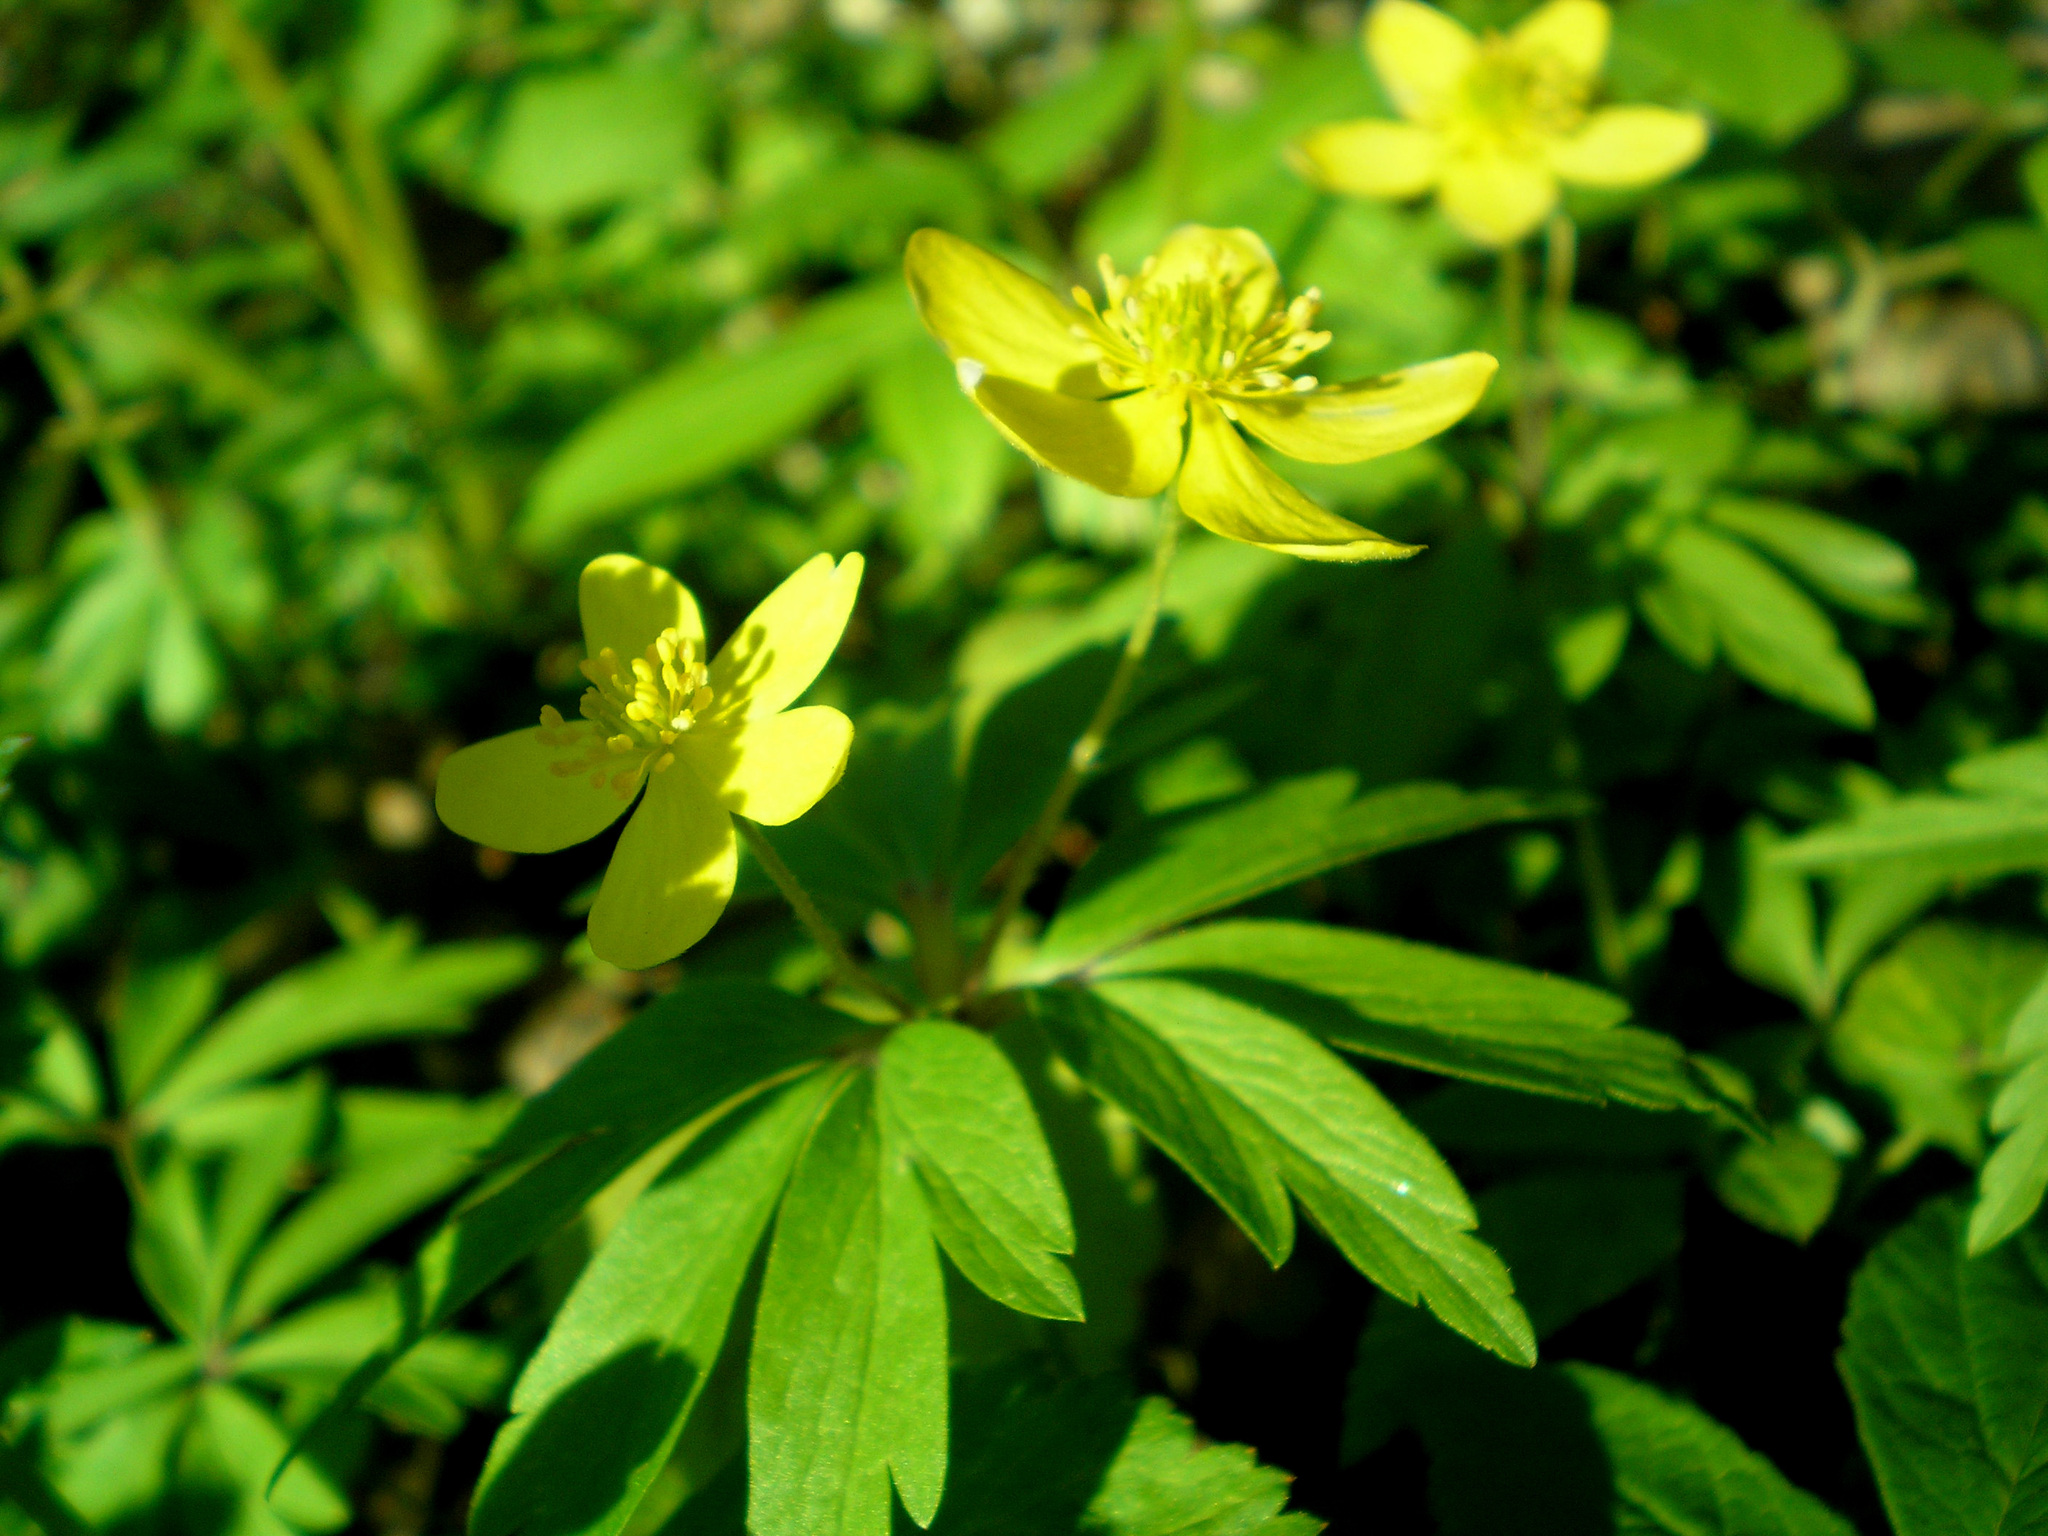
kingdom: Plantae
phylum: Tracheophyta
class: Magnoliopsida
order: Ranunculales
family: Ranunculaceae
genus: Anemone
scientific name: Anemone ranunculoides
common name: Yellow anemone
